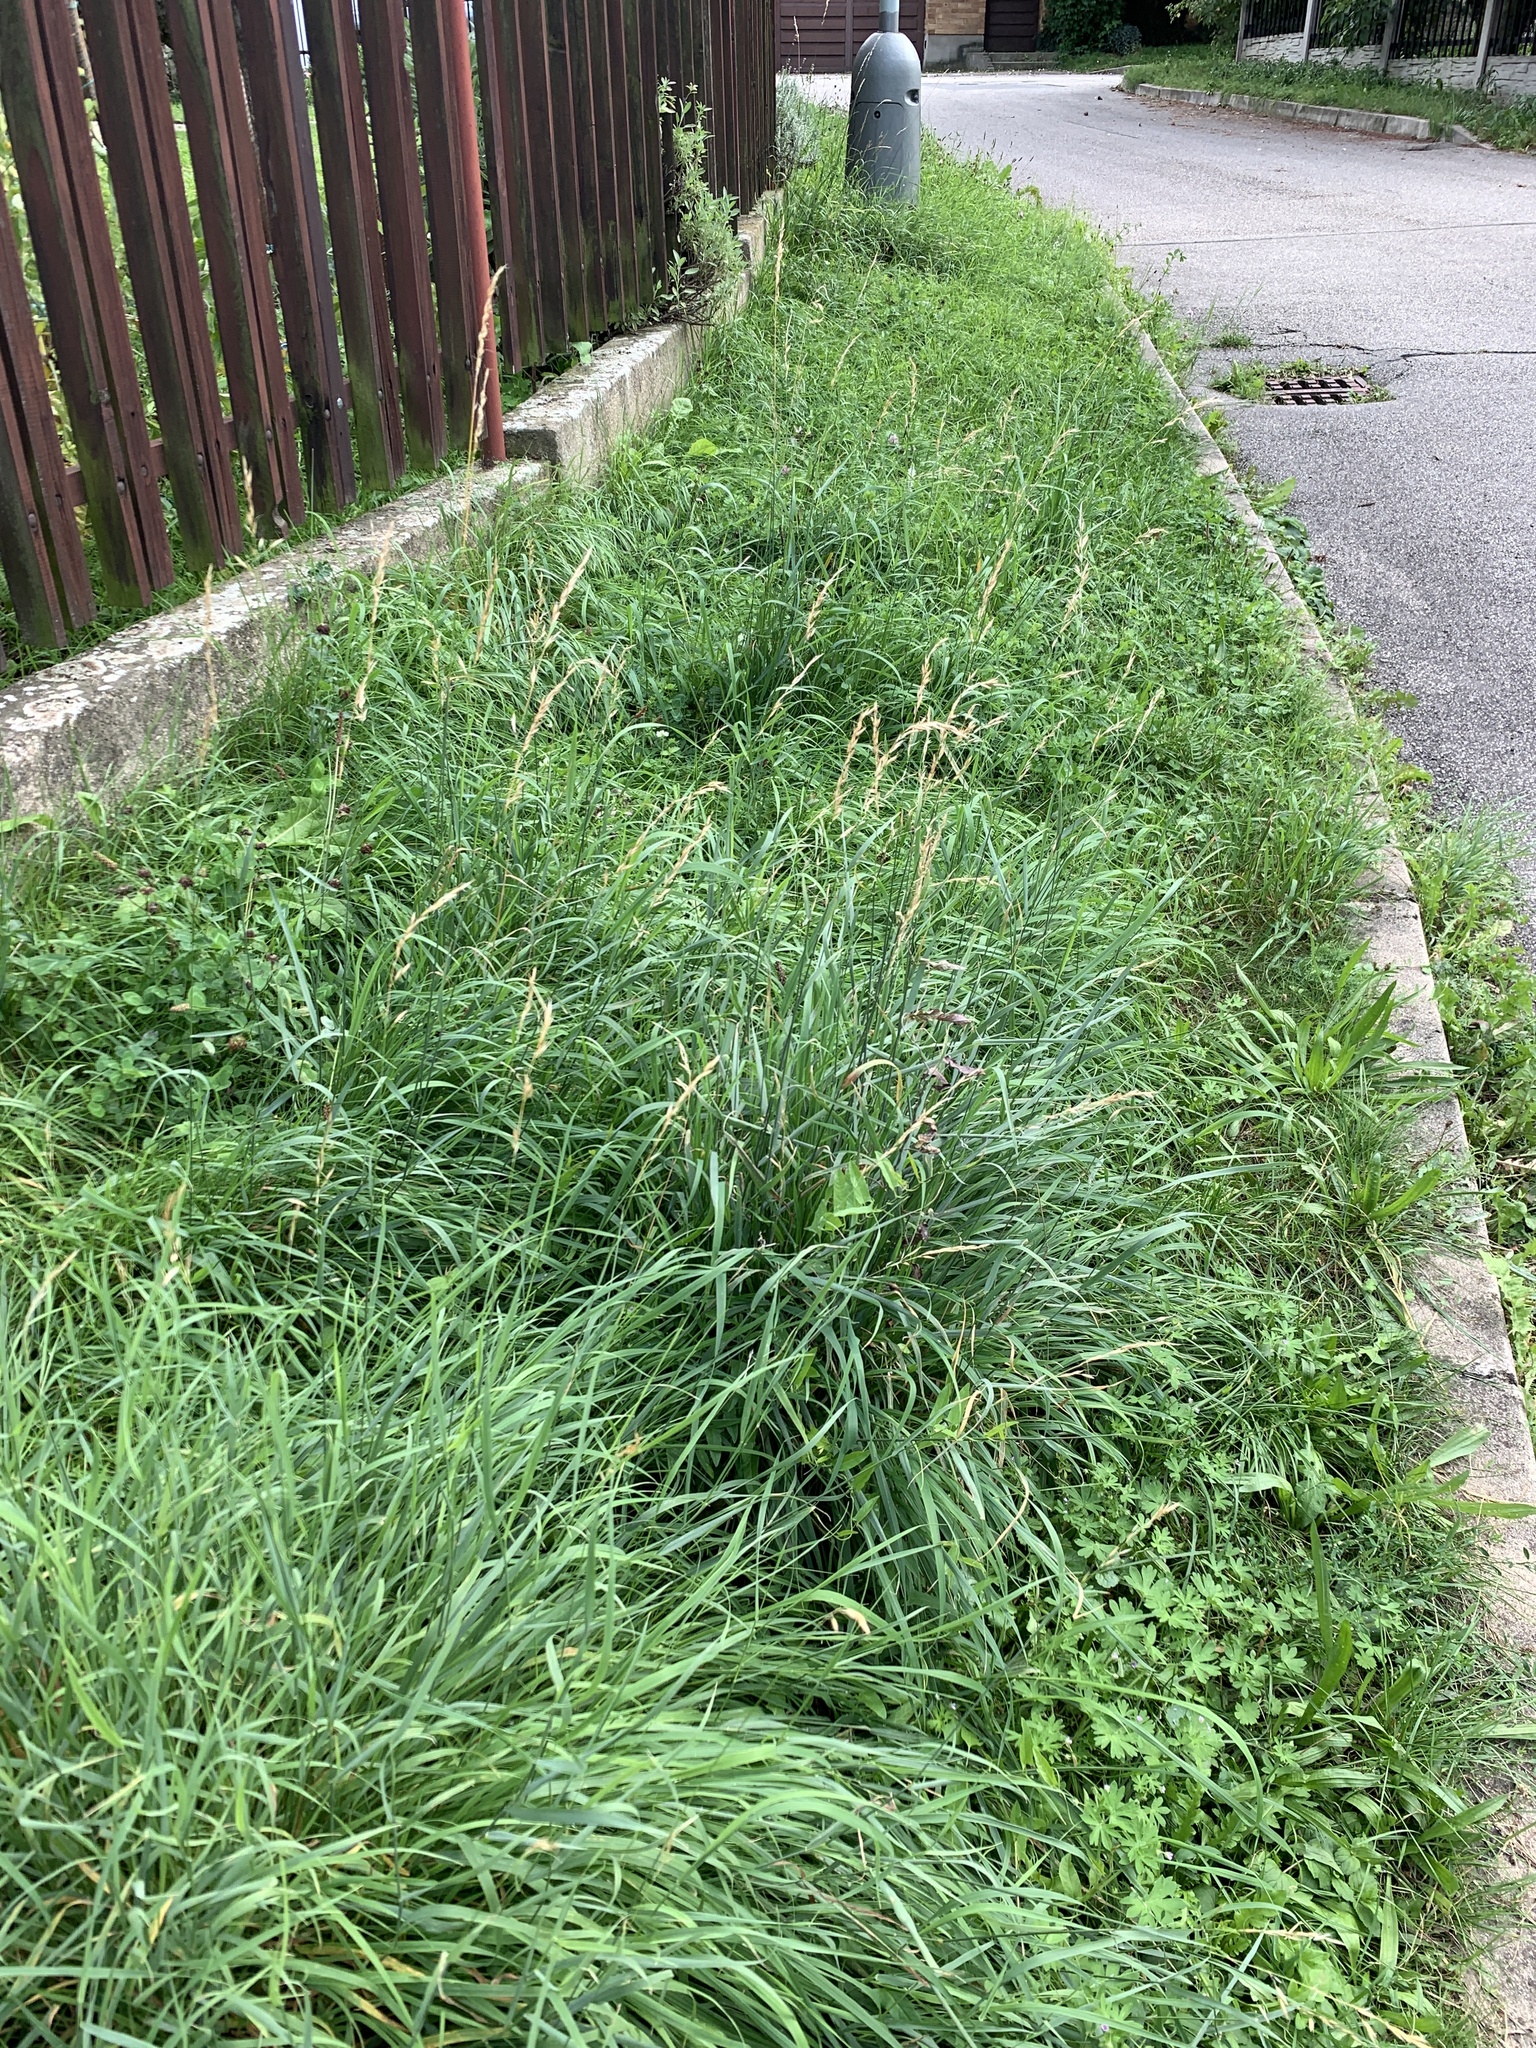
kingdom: Plantae
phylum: Tracheophyta
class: Liliopsida
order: Poales
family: Poaceae
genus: Arrhenatherum
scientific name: Arrhenatherum elatius
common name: Tall oatgrass
